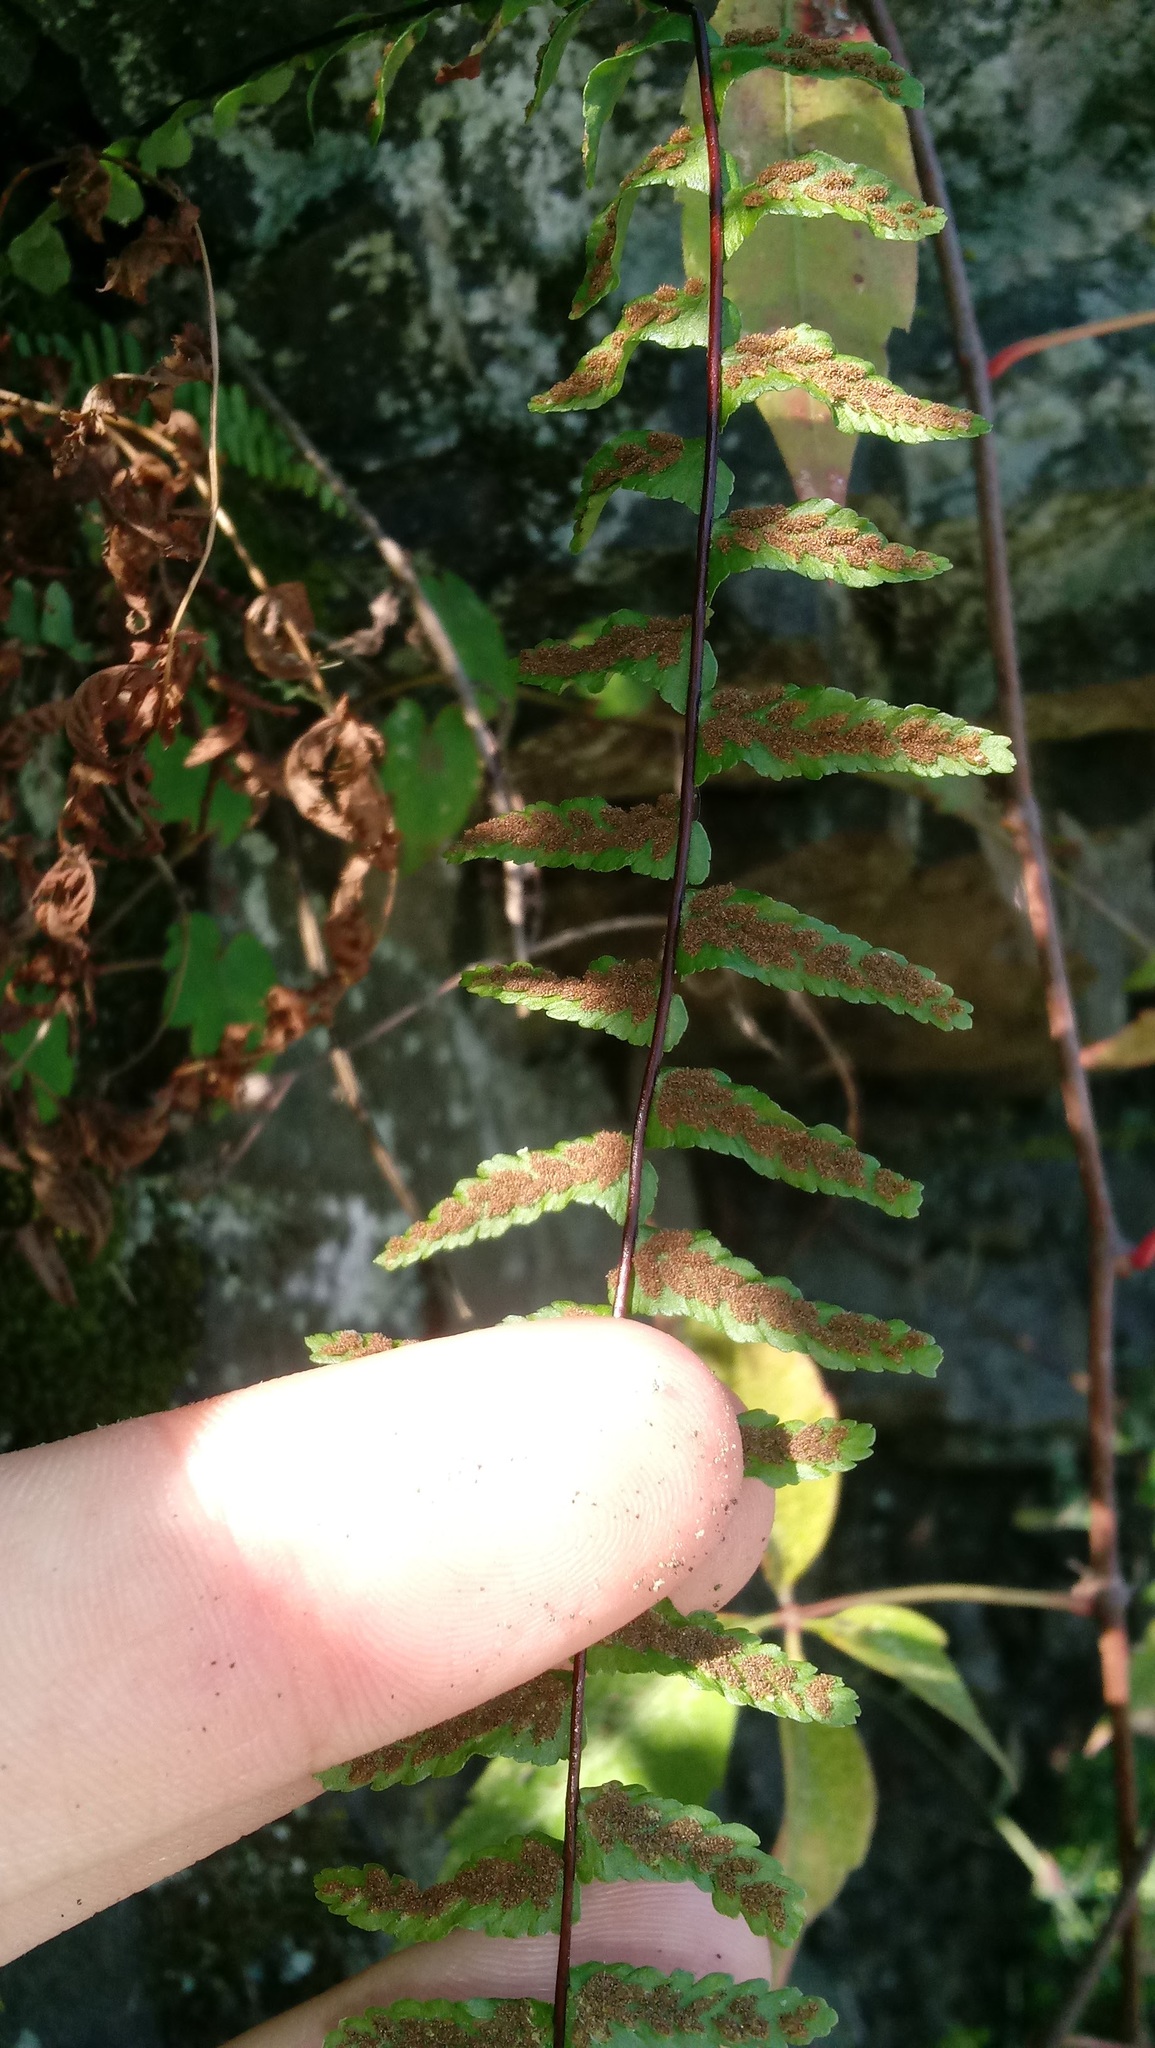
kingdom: Plantae
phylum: Tracheophyta
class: Polypodiopsida
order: Polypodiales
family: Aspleniaceae
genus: Asplenium
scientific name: Asplenium platyneuron
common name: Ebony spleenwort
